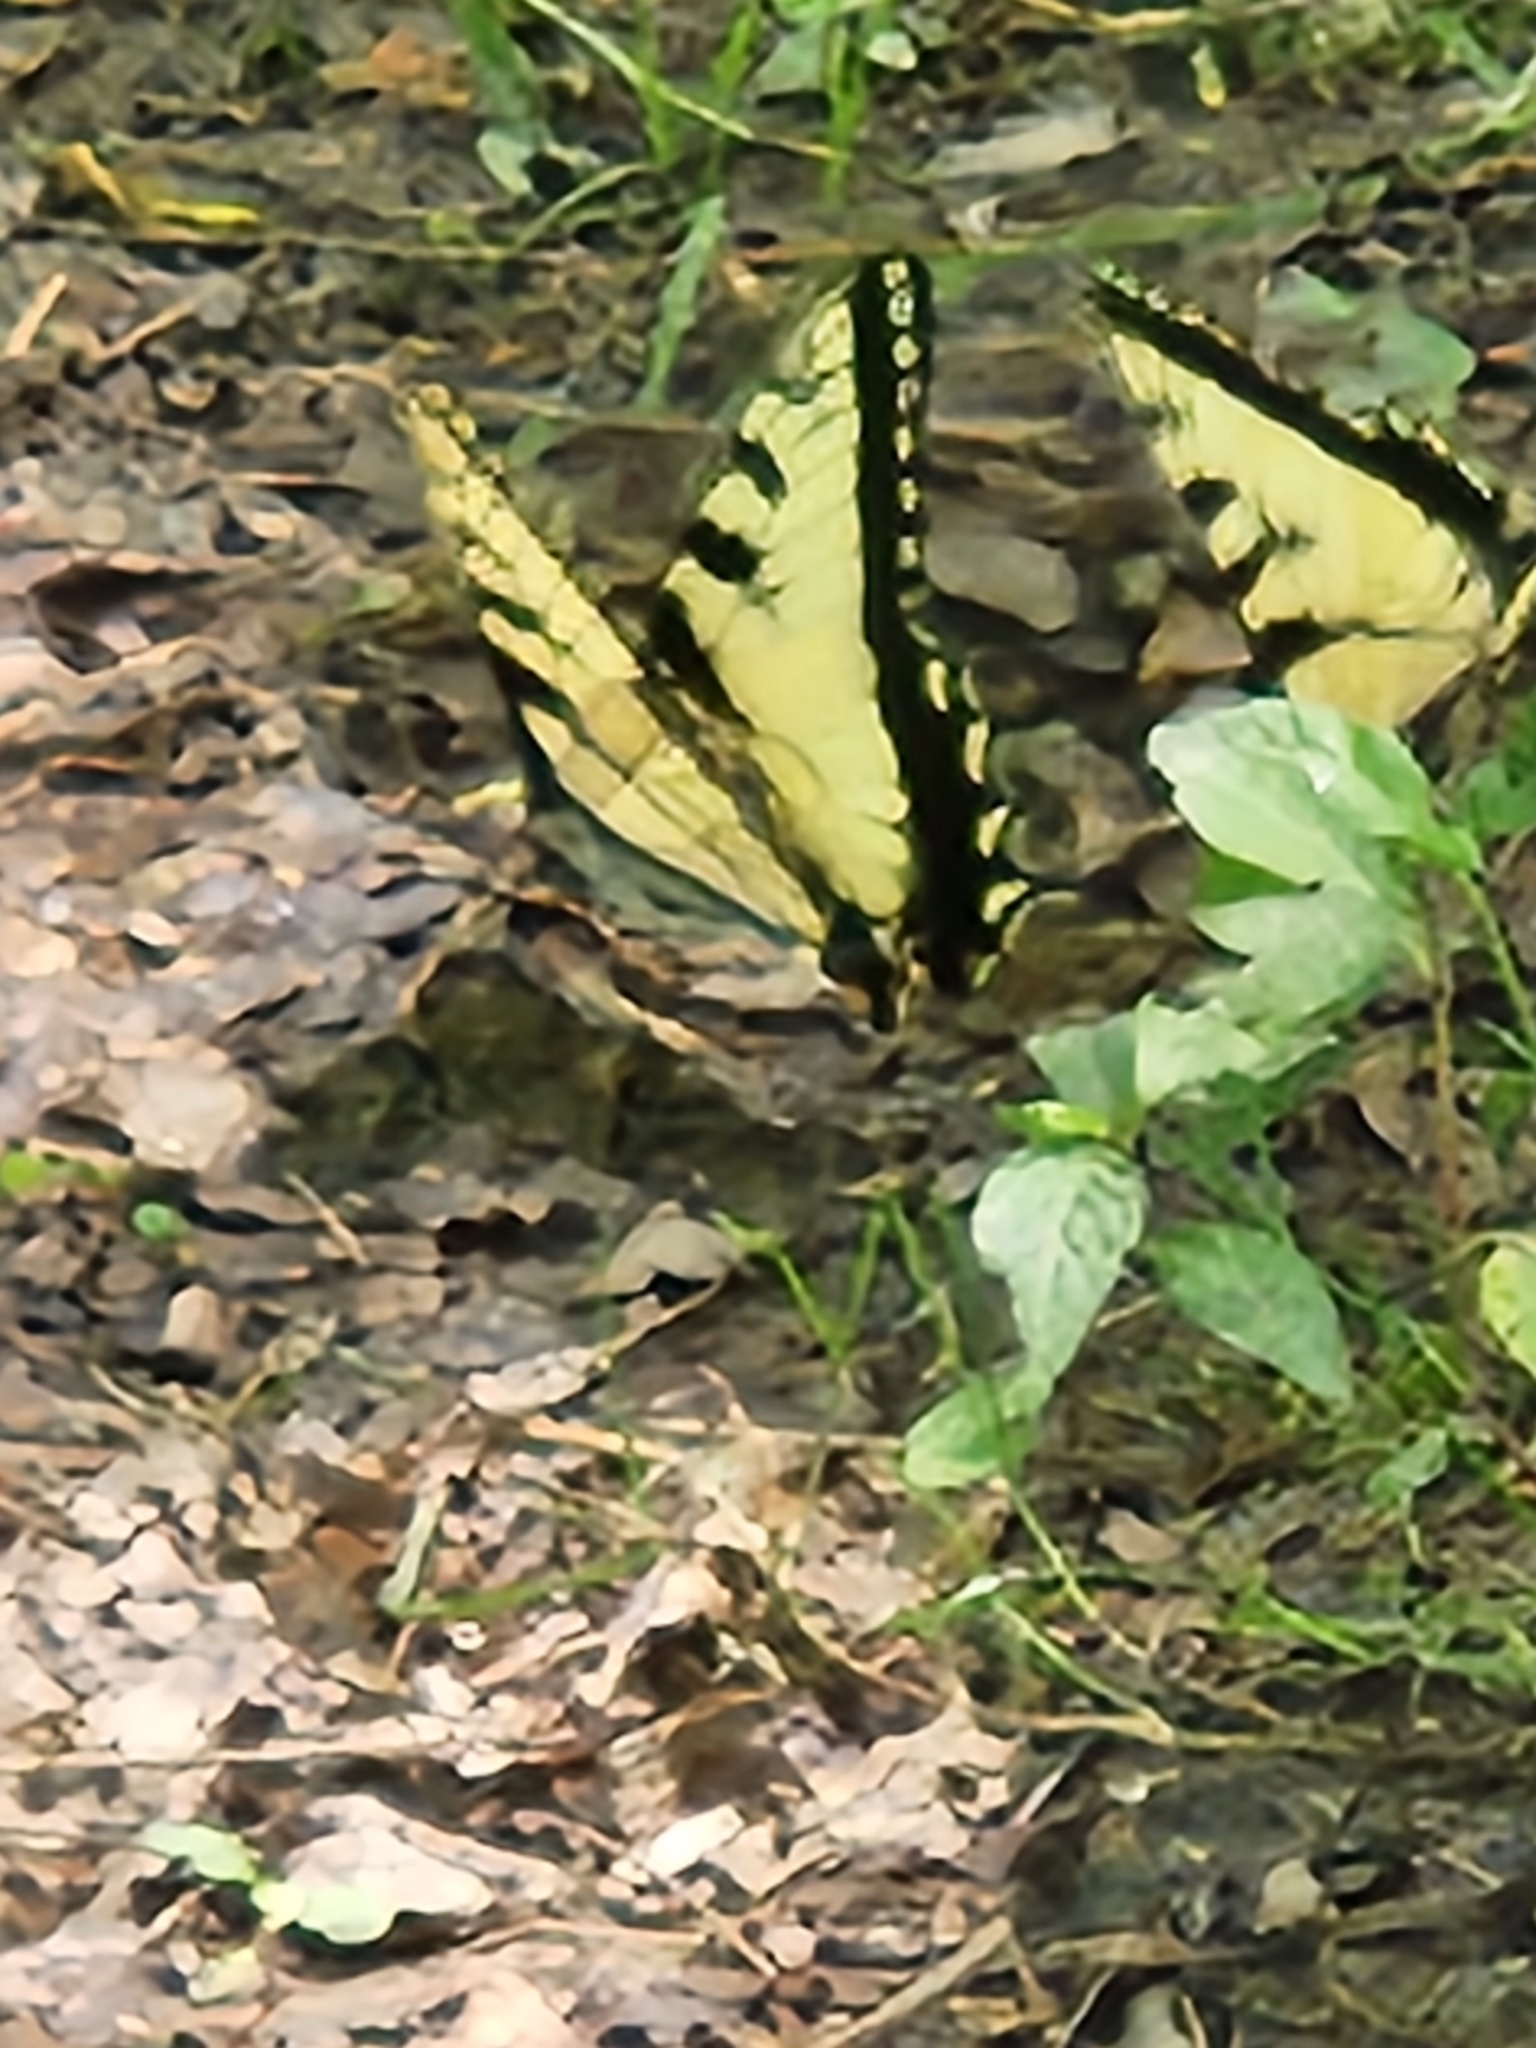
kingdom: Animalia
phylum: Arthropoda
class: Insecta
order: Lepidoptera
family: Papilionidae
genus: Papilio
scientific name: Papilio glaucus
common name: Tiger swallowtail
